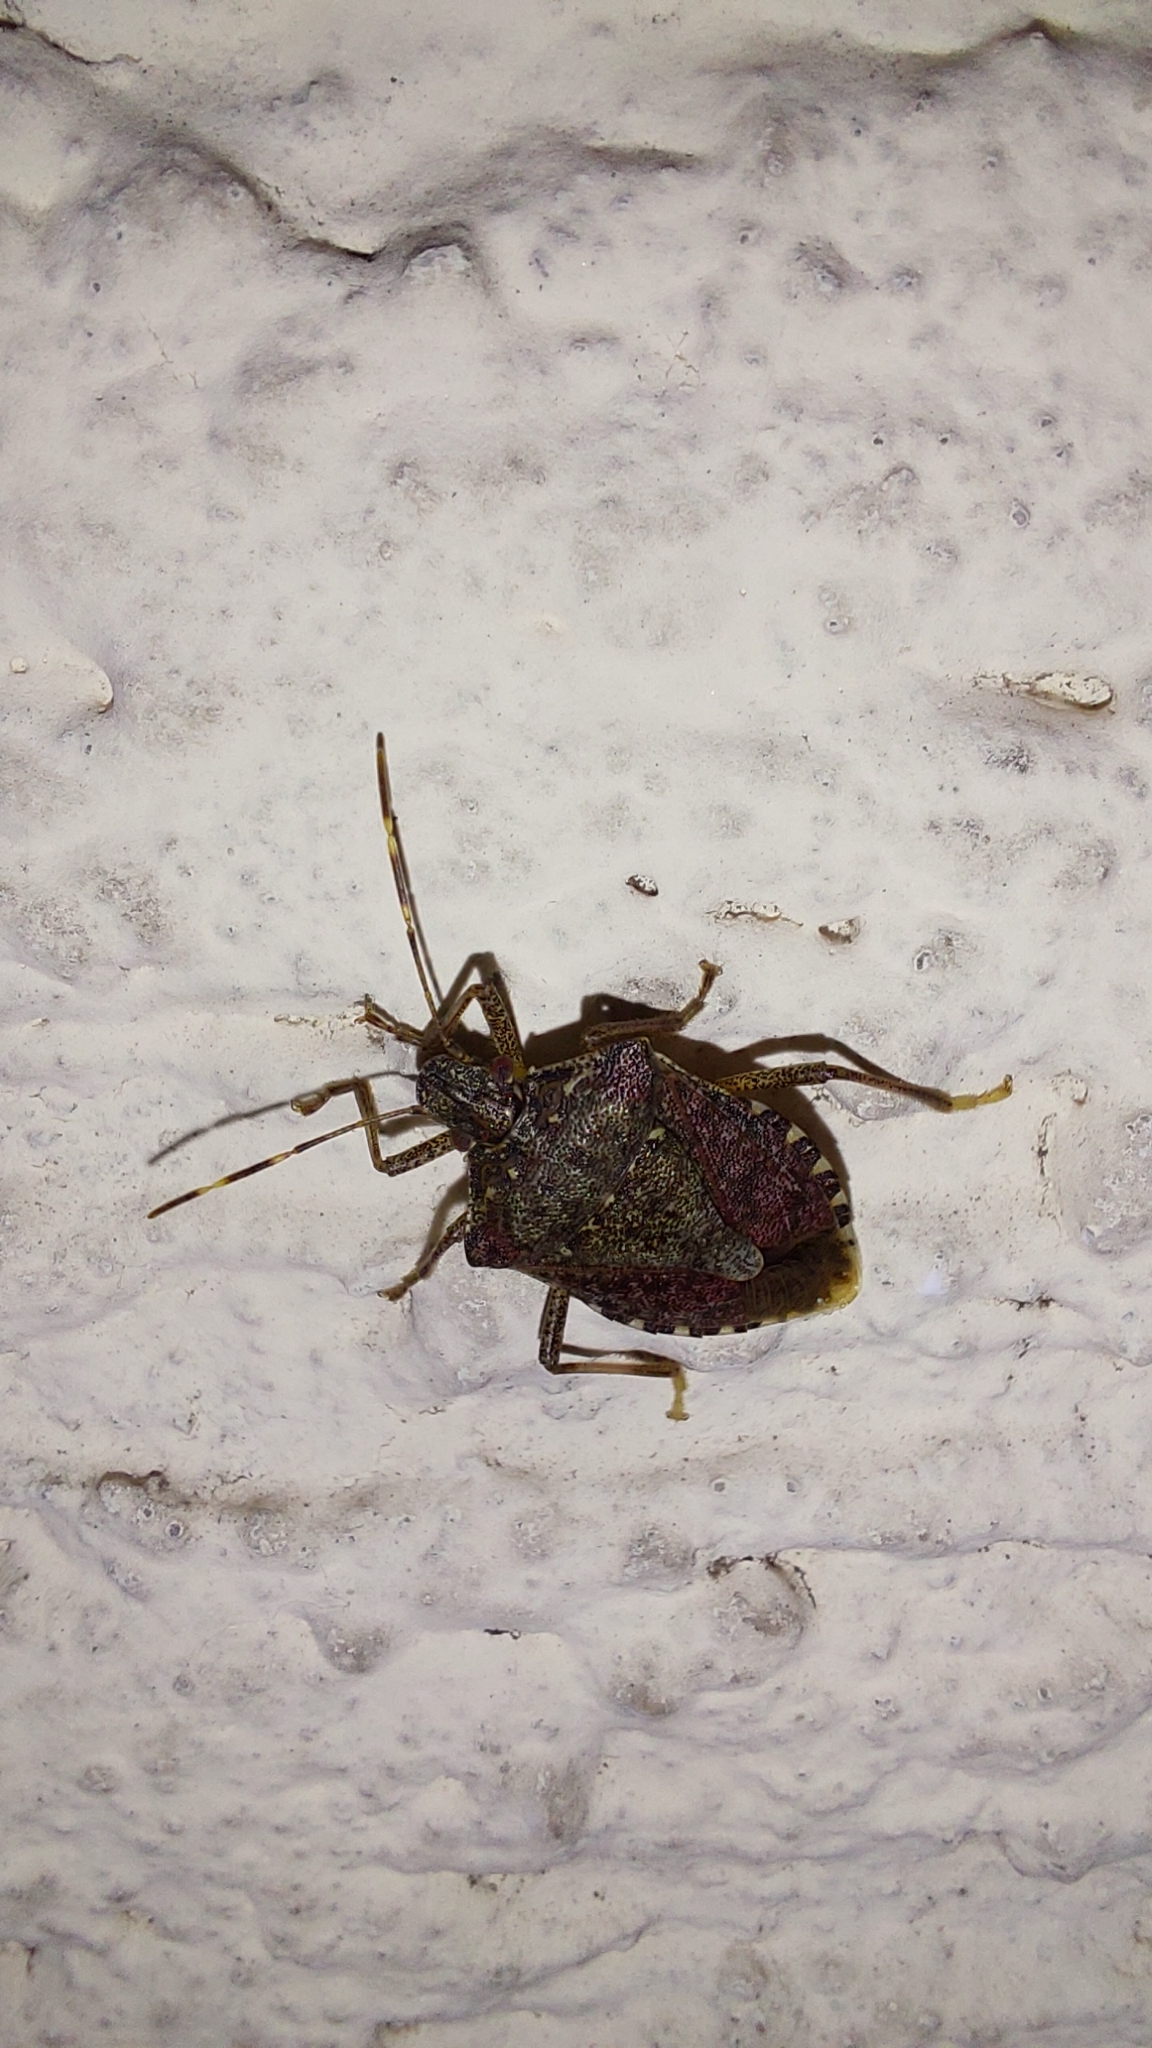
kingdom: Animalia
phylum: Arthropoda
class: Insecta
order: Hemiptera
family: Pentatomidae
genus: Halyomorpha
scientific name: Halyomorpha halys
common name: Brown marmorated stink bug
